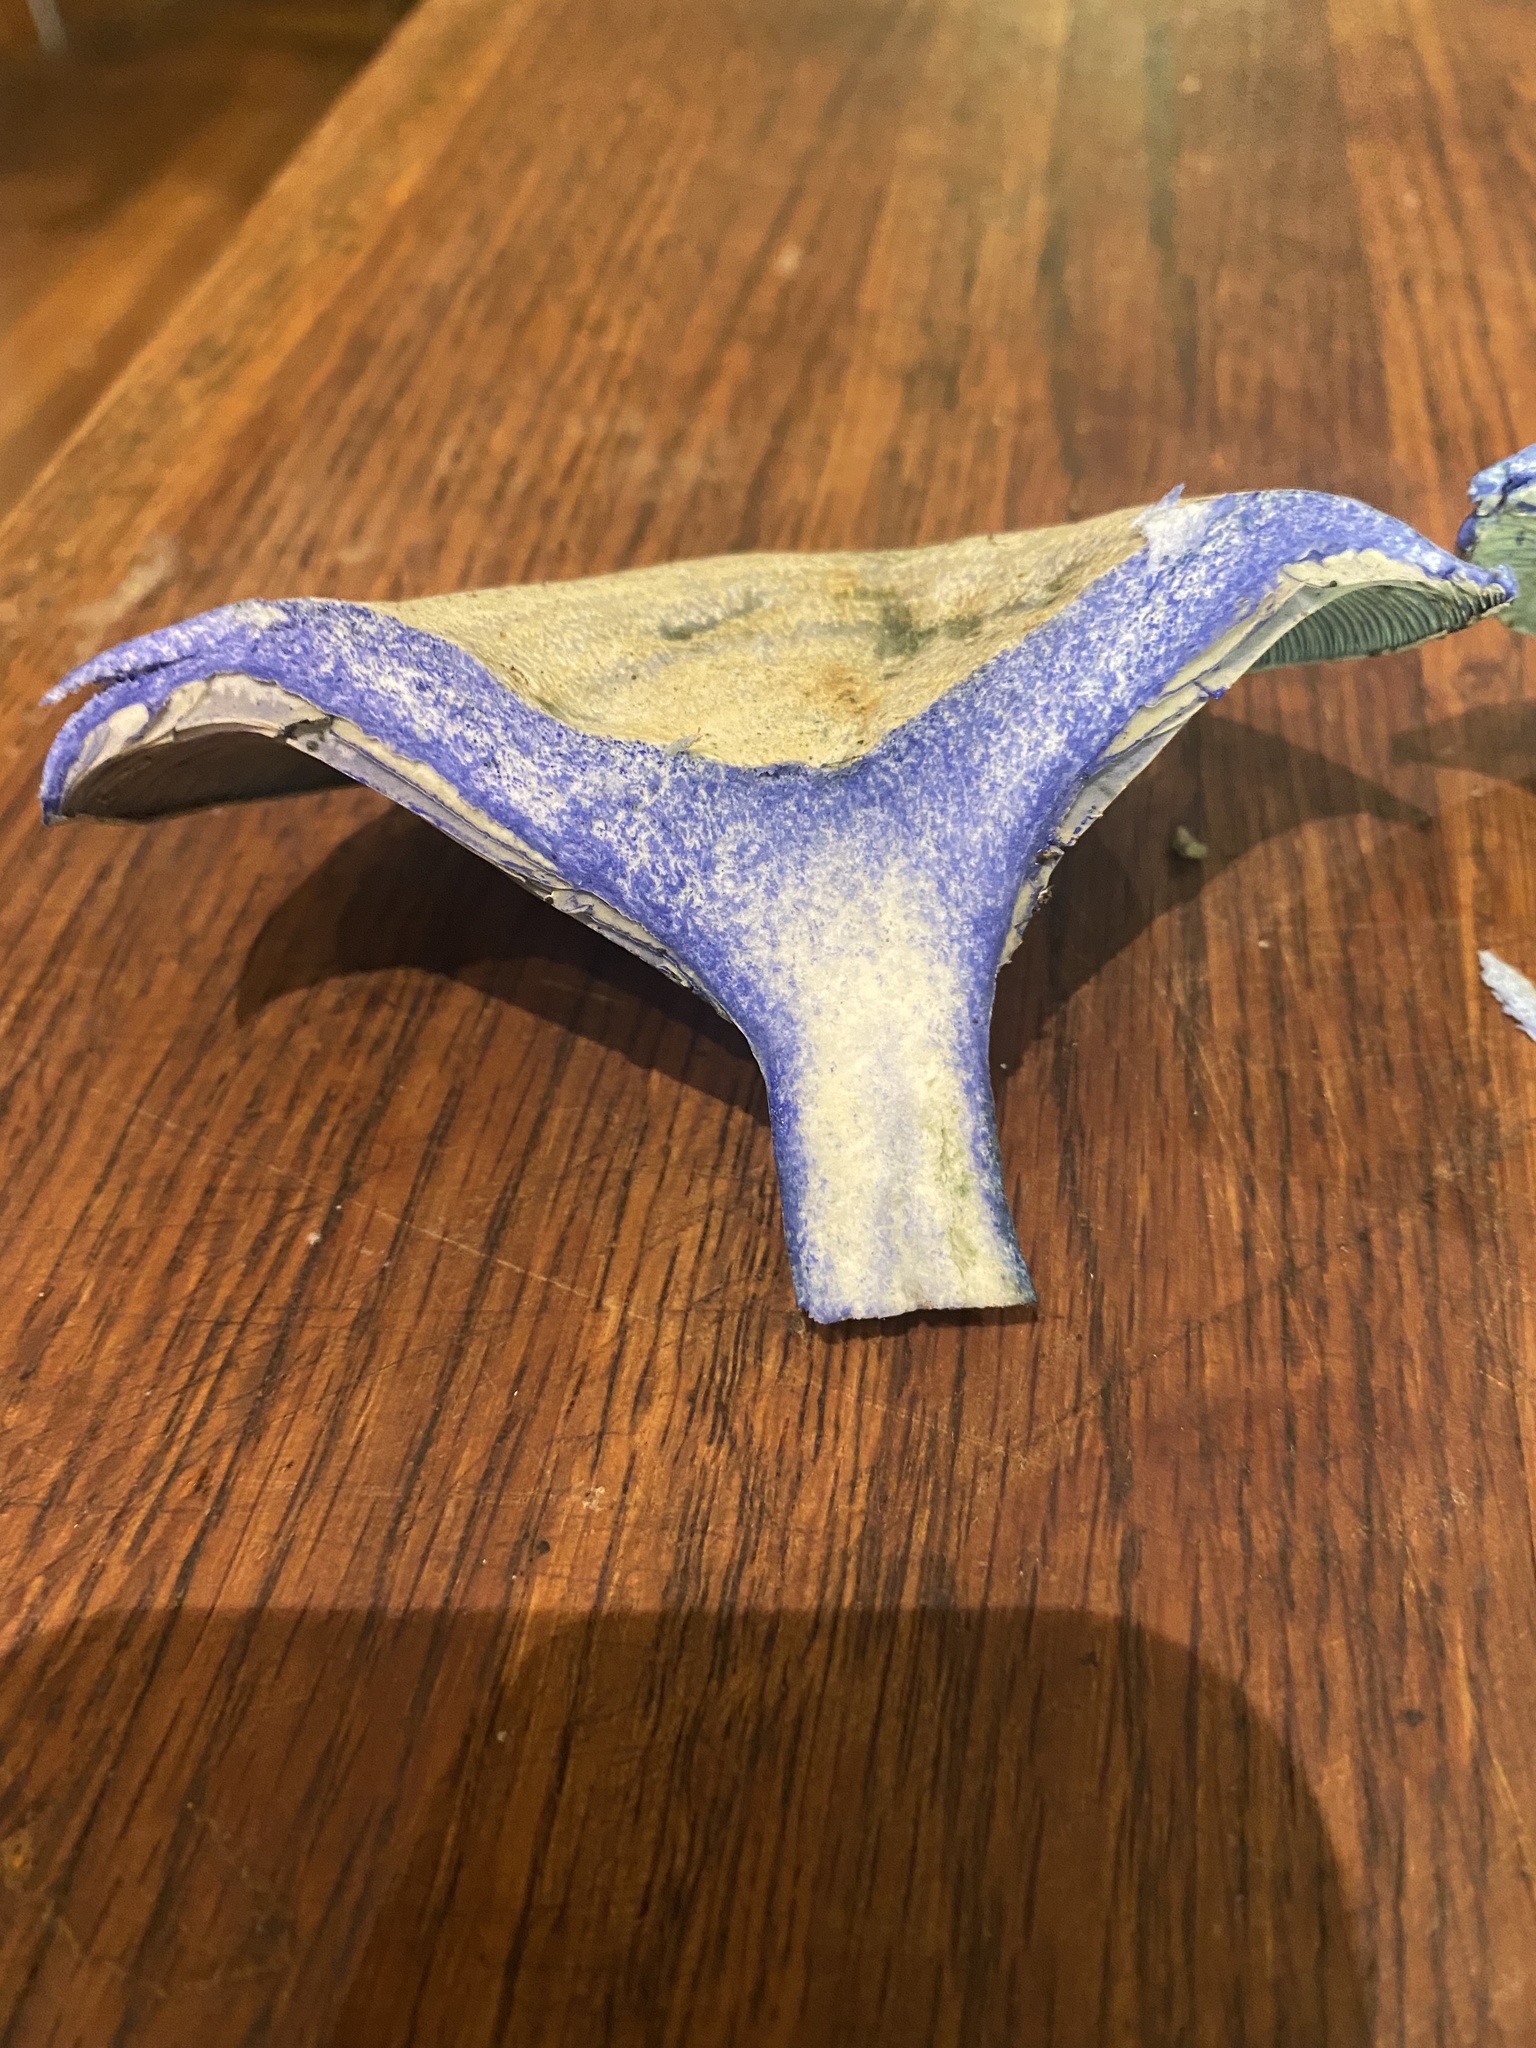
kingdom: Fungi
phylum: Basidiomycota
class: Agaricomycetes
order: Russulales
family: Russulaceae
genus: Lactarius
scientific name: Lactarius indigo
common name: Indigo milk cap
